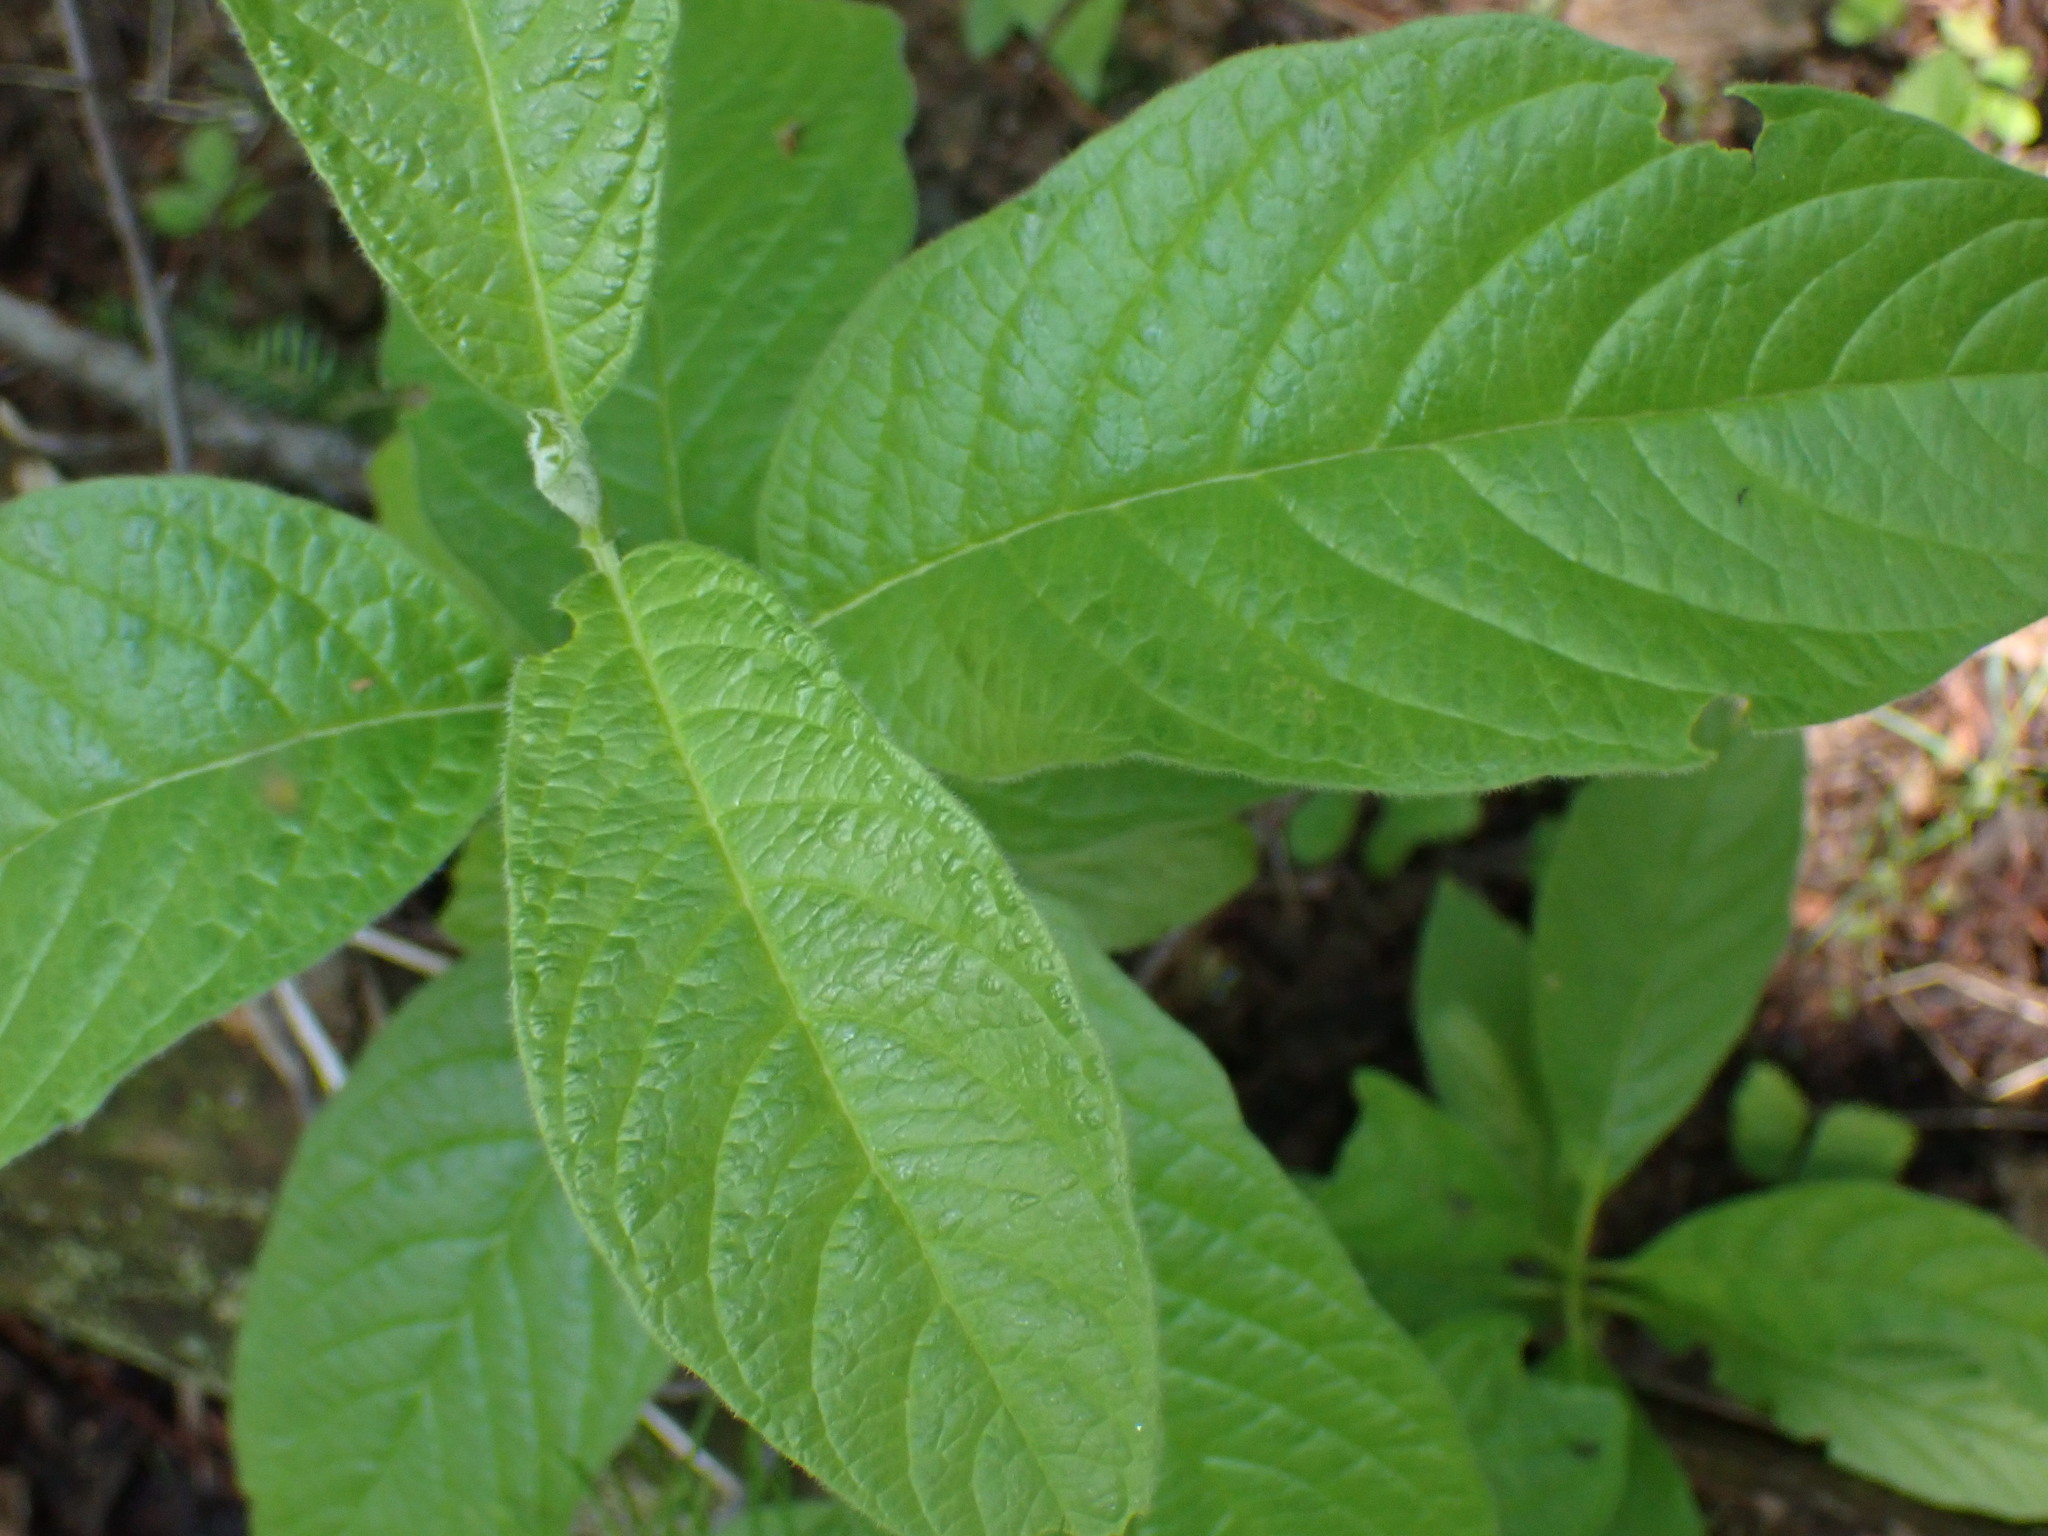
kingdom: Plantae
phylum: Tracheophyta
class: Magnoliopsida
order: Dipsacales
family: Caprifoliaceae
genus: Lonicera
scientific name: Lonicera involucrata
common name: Californian honeysuckle
